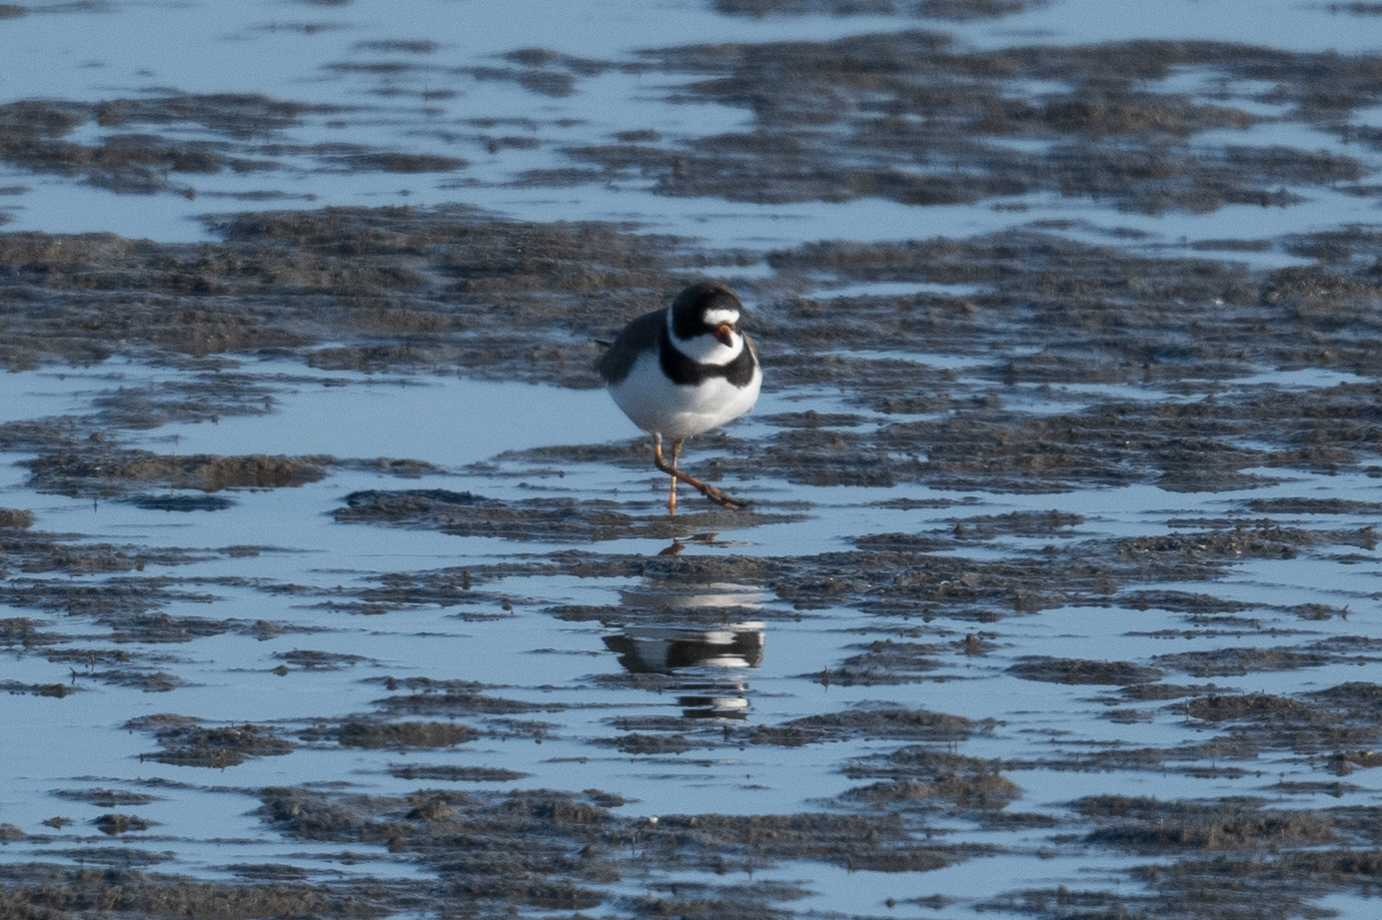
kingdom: Animalia
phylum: Chordata
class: Aves
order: Charadriiformes
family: Charadriidae
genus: Charadrius
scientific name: Charadrius semipalmatus
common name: Semipalmated plover
